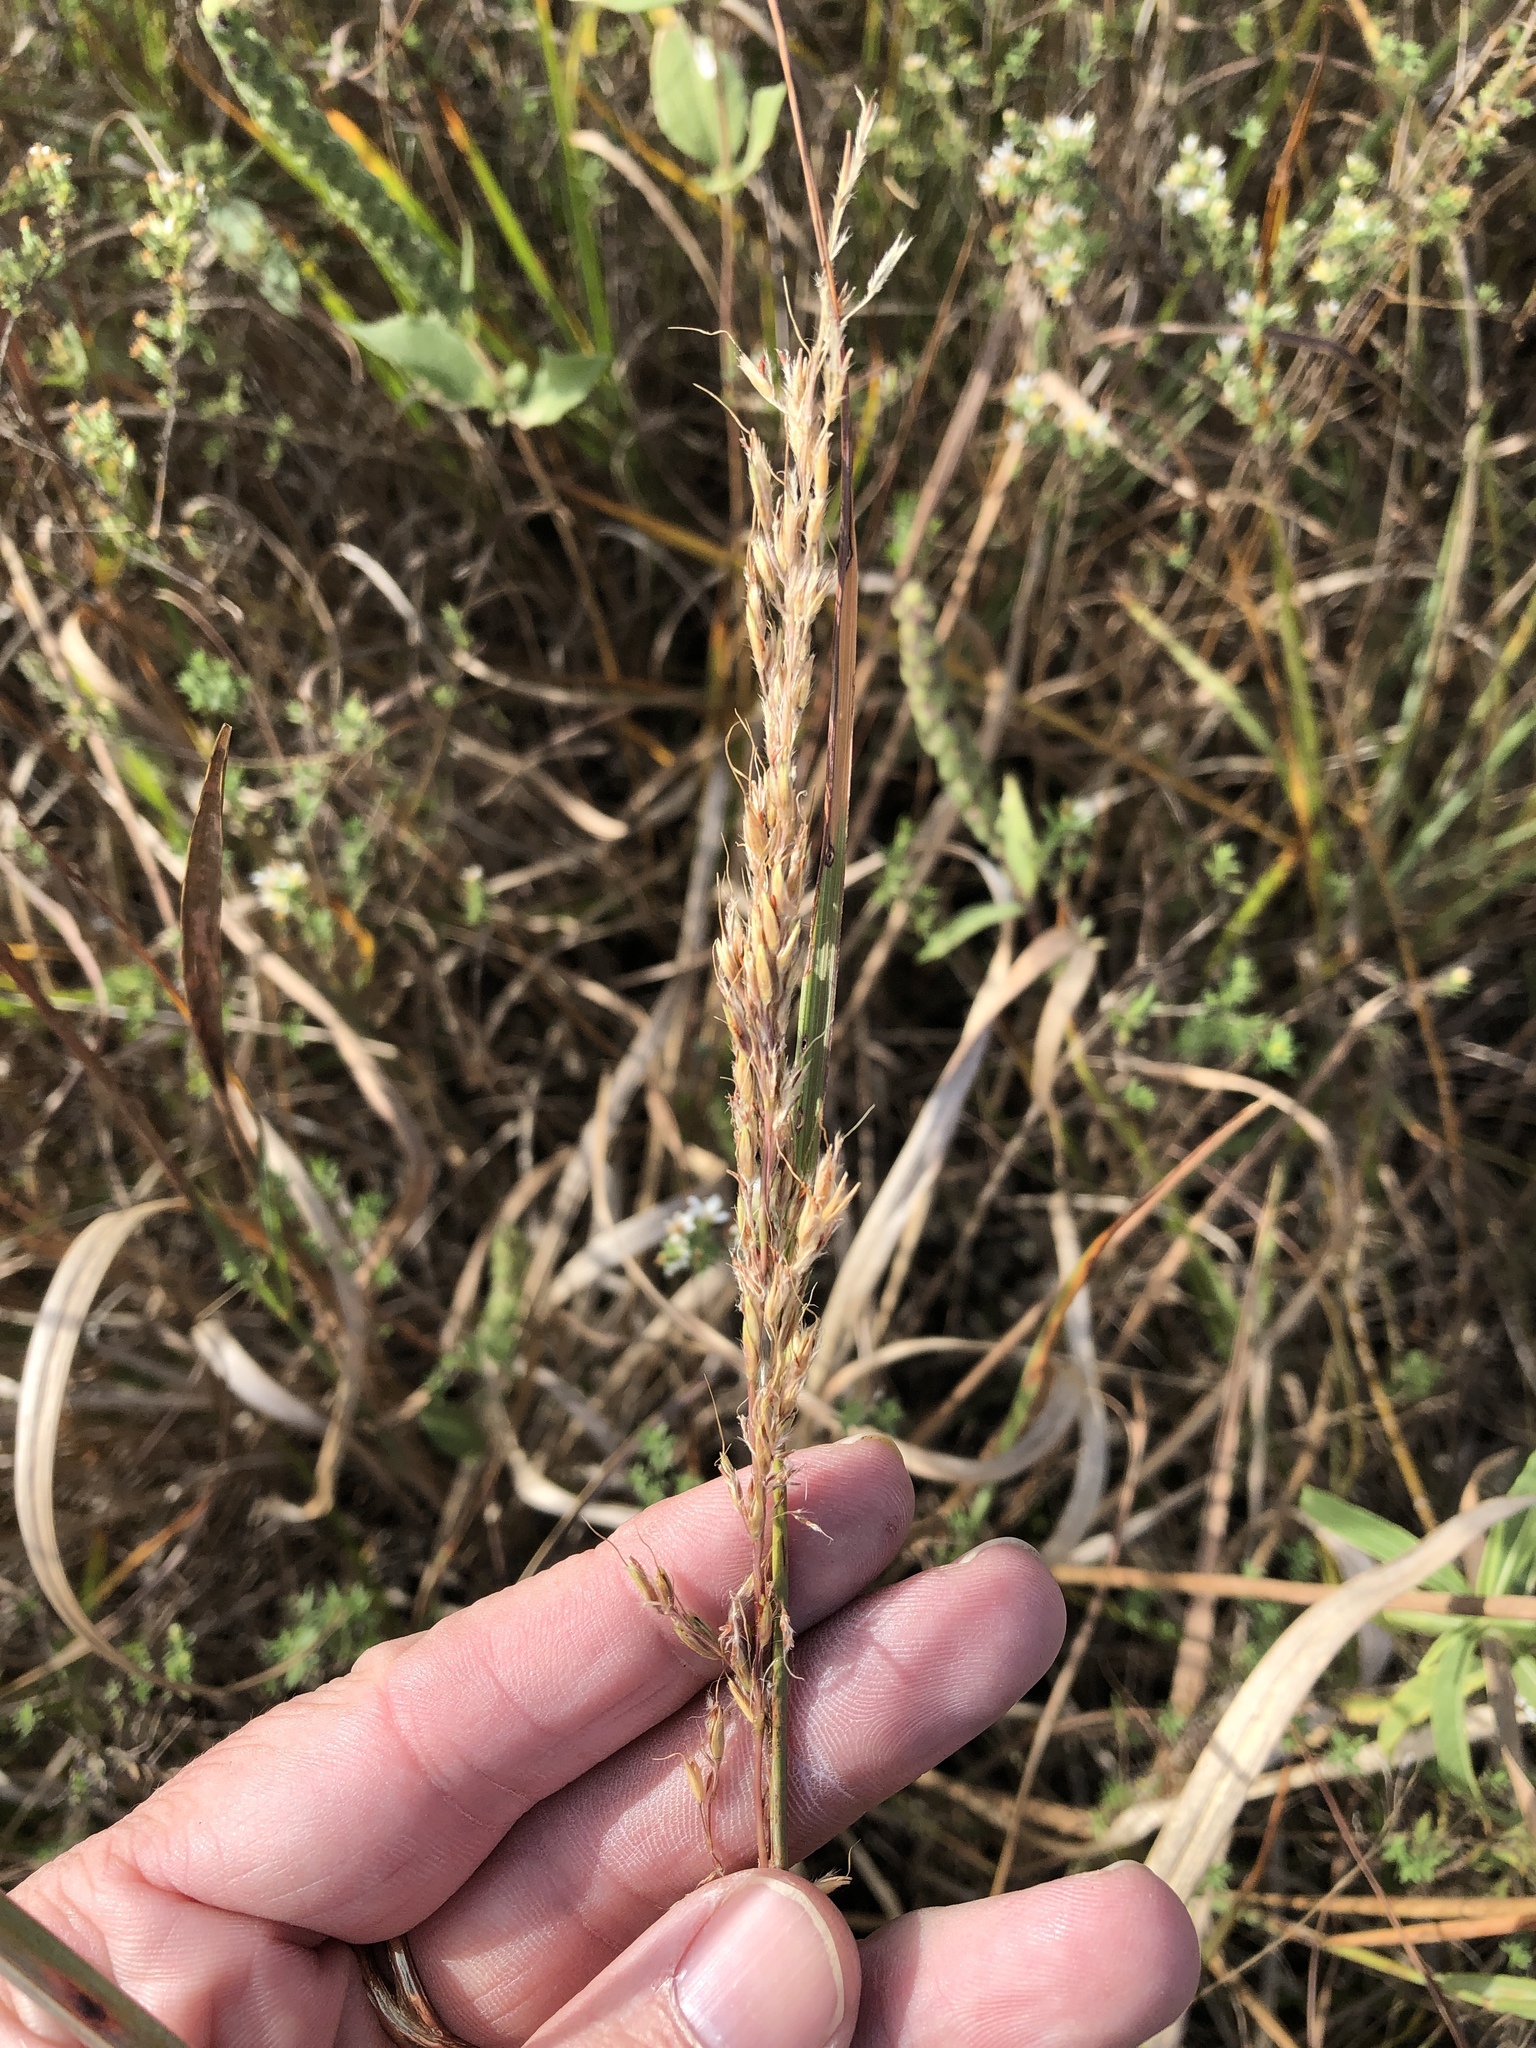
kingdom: Plantae
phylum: Tracheophyta
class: Liliopsida
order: Poales
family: Poaceae
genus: Sorghastrum
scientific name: Sorghastrum nutans
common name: Indian grass
